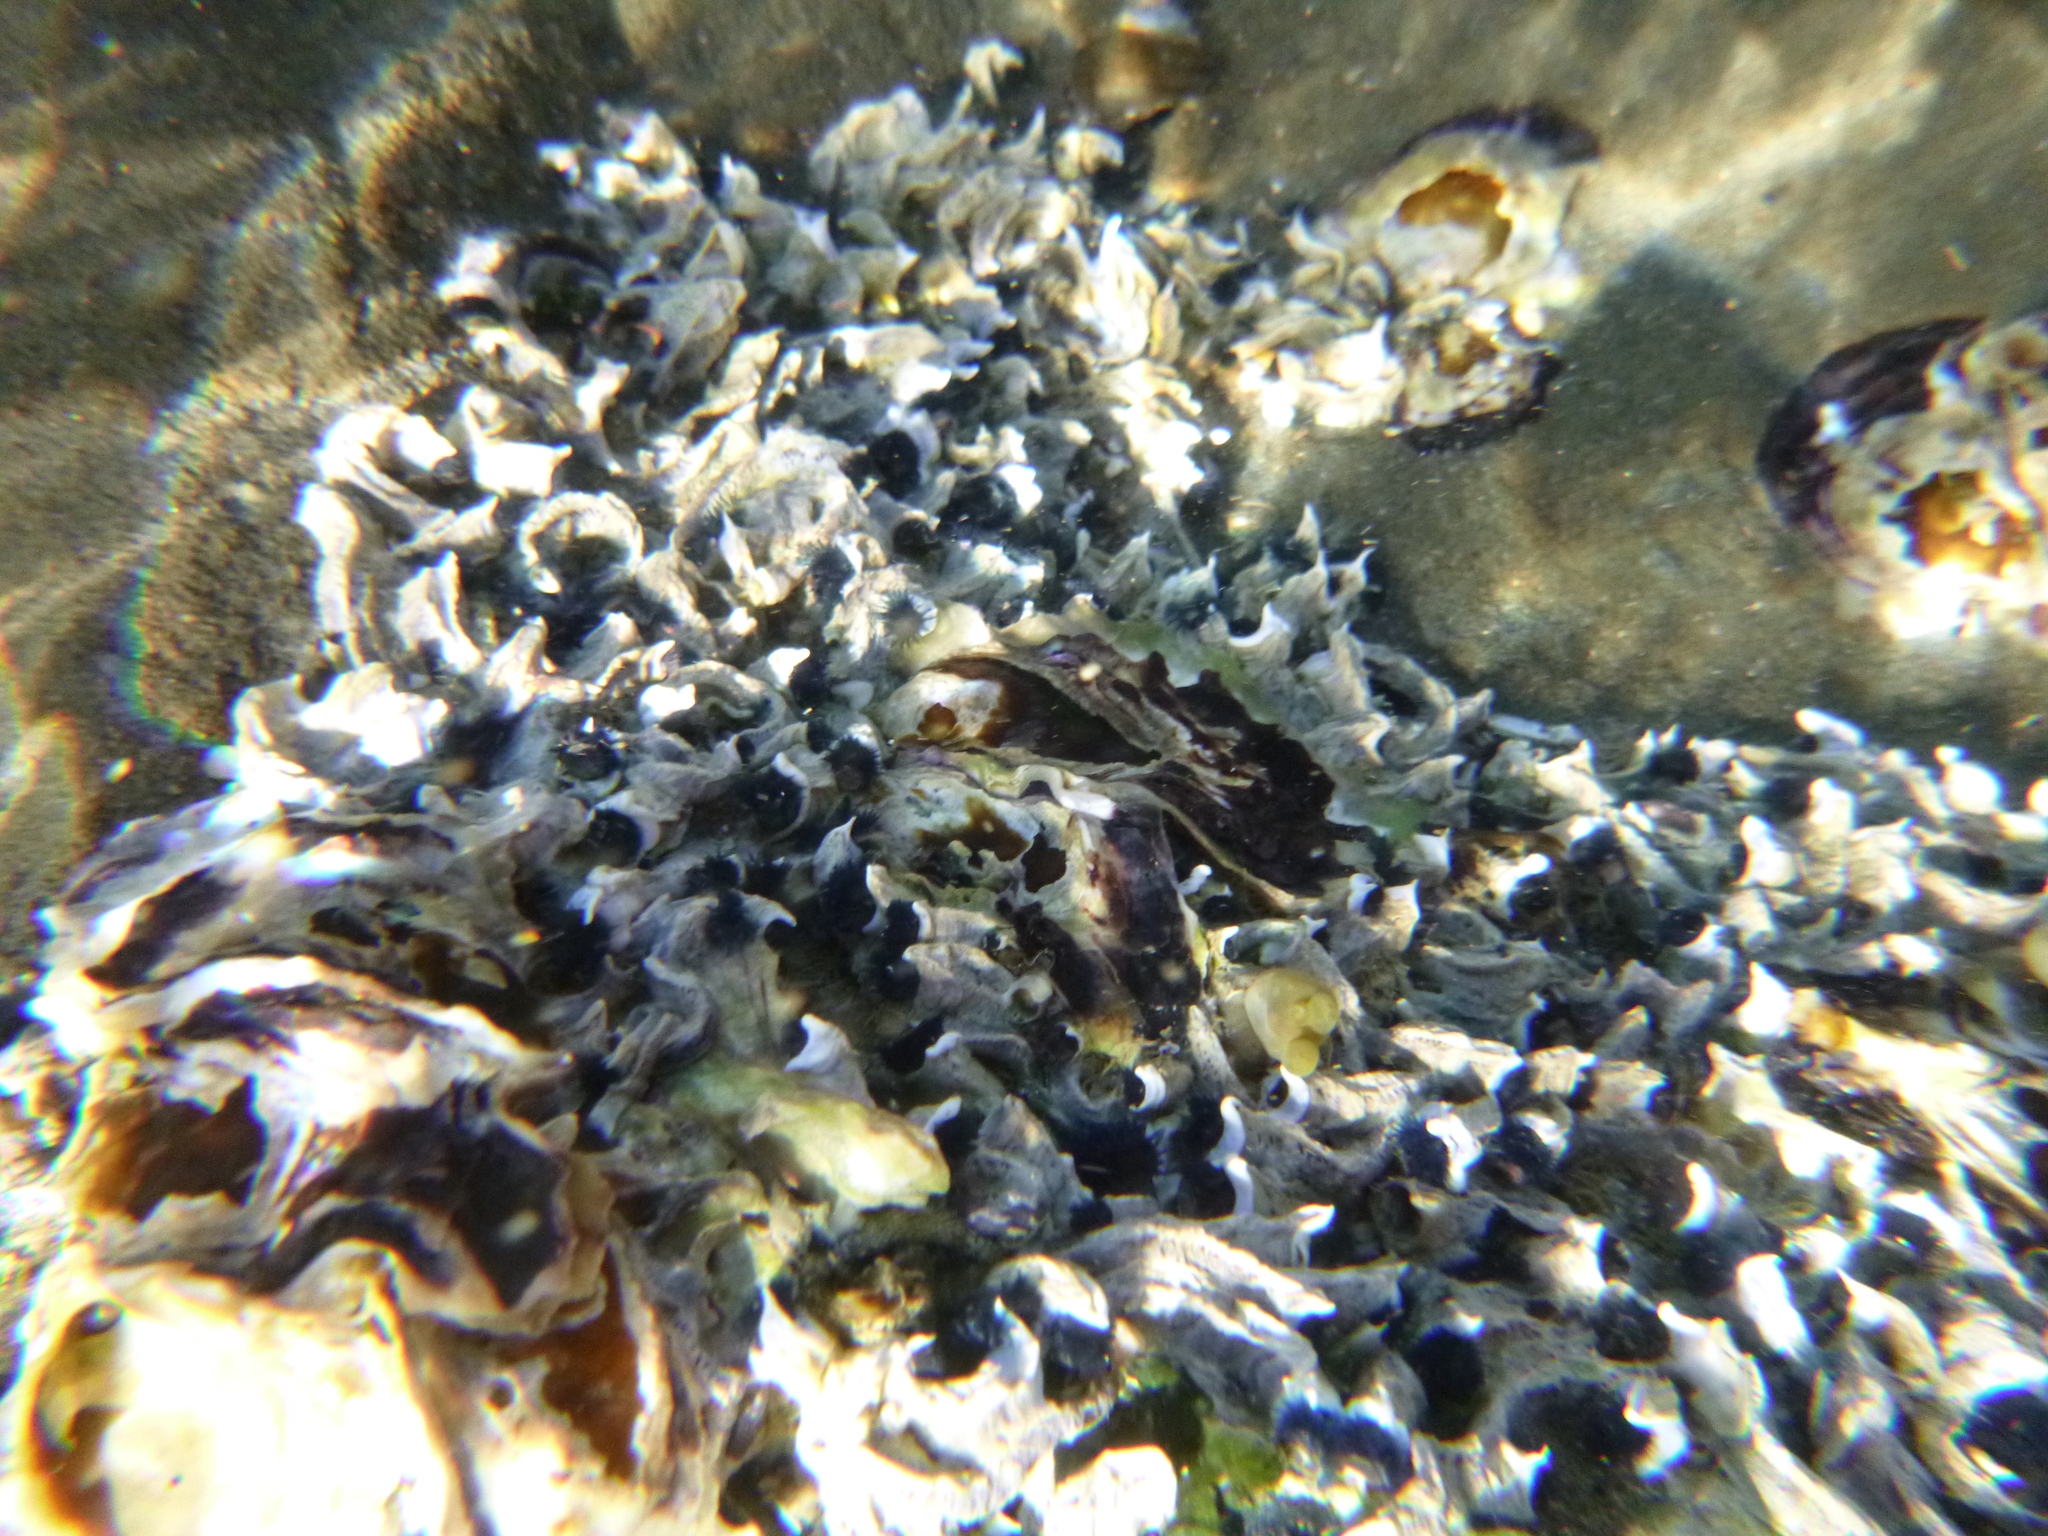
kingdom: Animalia
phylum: Annelida
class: Polychaeta
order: Sabellida
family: Serpulidae
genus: Spirobranchus
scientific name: Spirobranchus cariniferus
